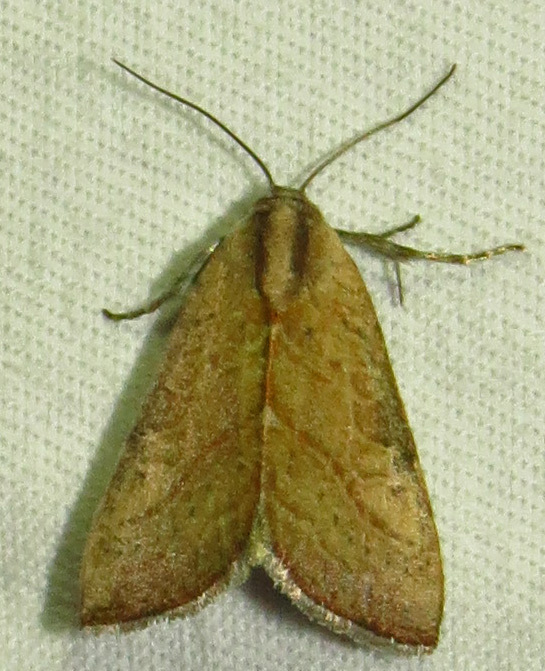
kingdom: Animalia
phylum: Arthropoda
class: Insecta
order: Lepidoptera
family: Noctuidae
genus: Galgula
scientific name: Galgula partita
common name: Wedgeling
